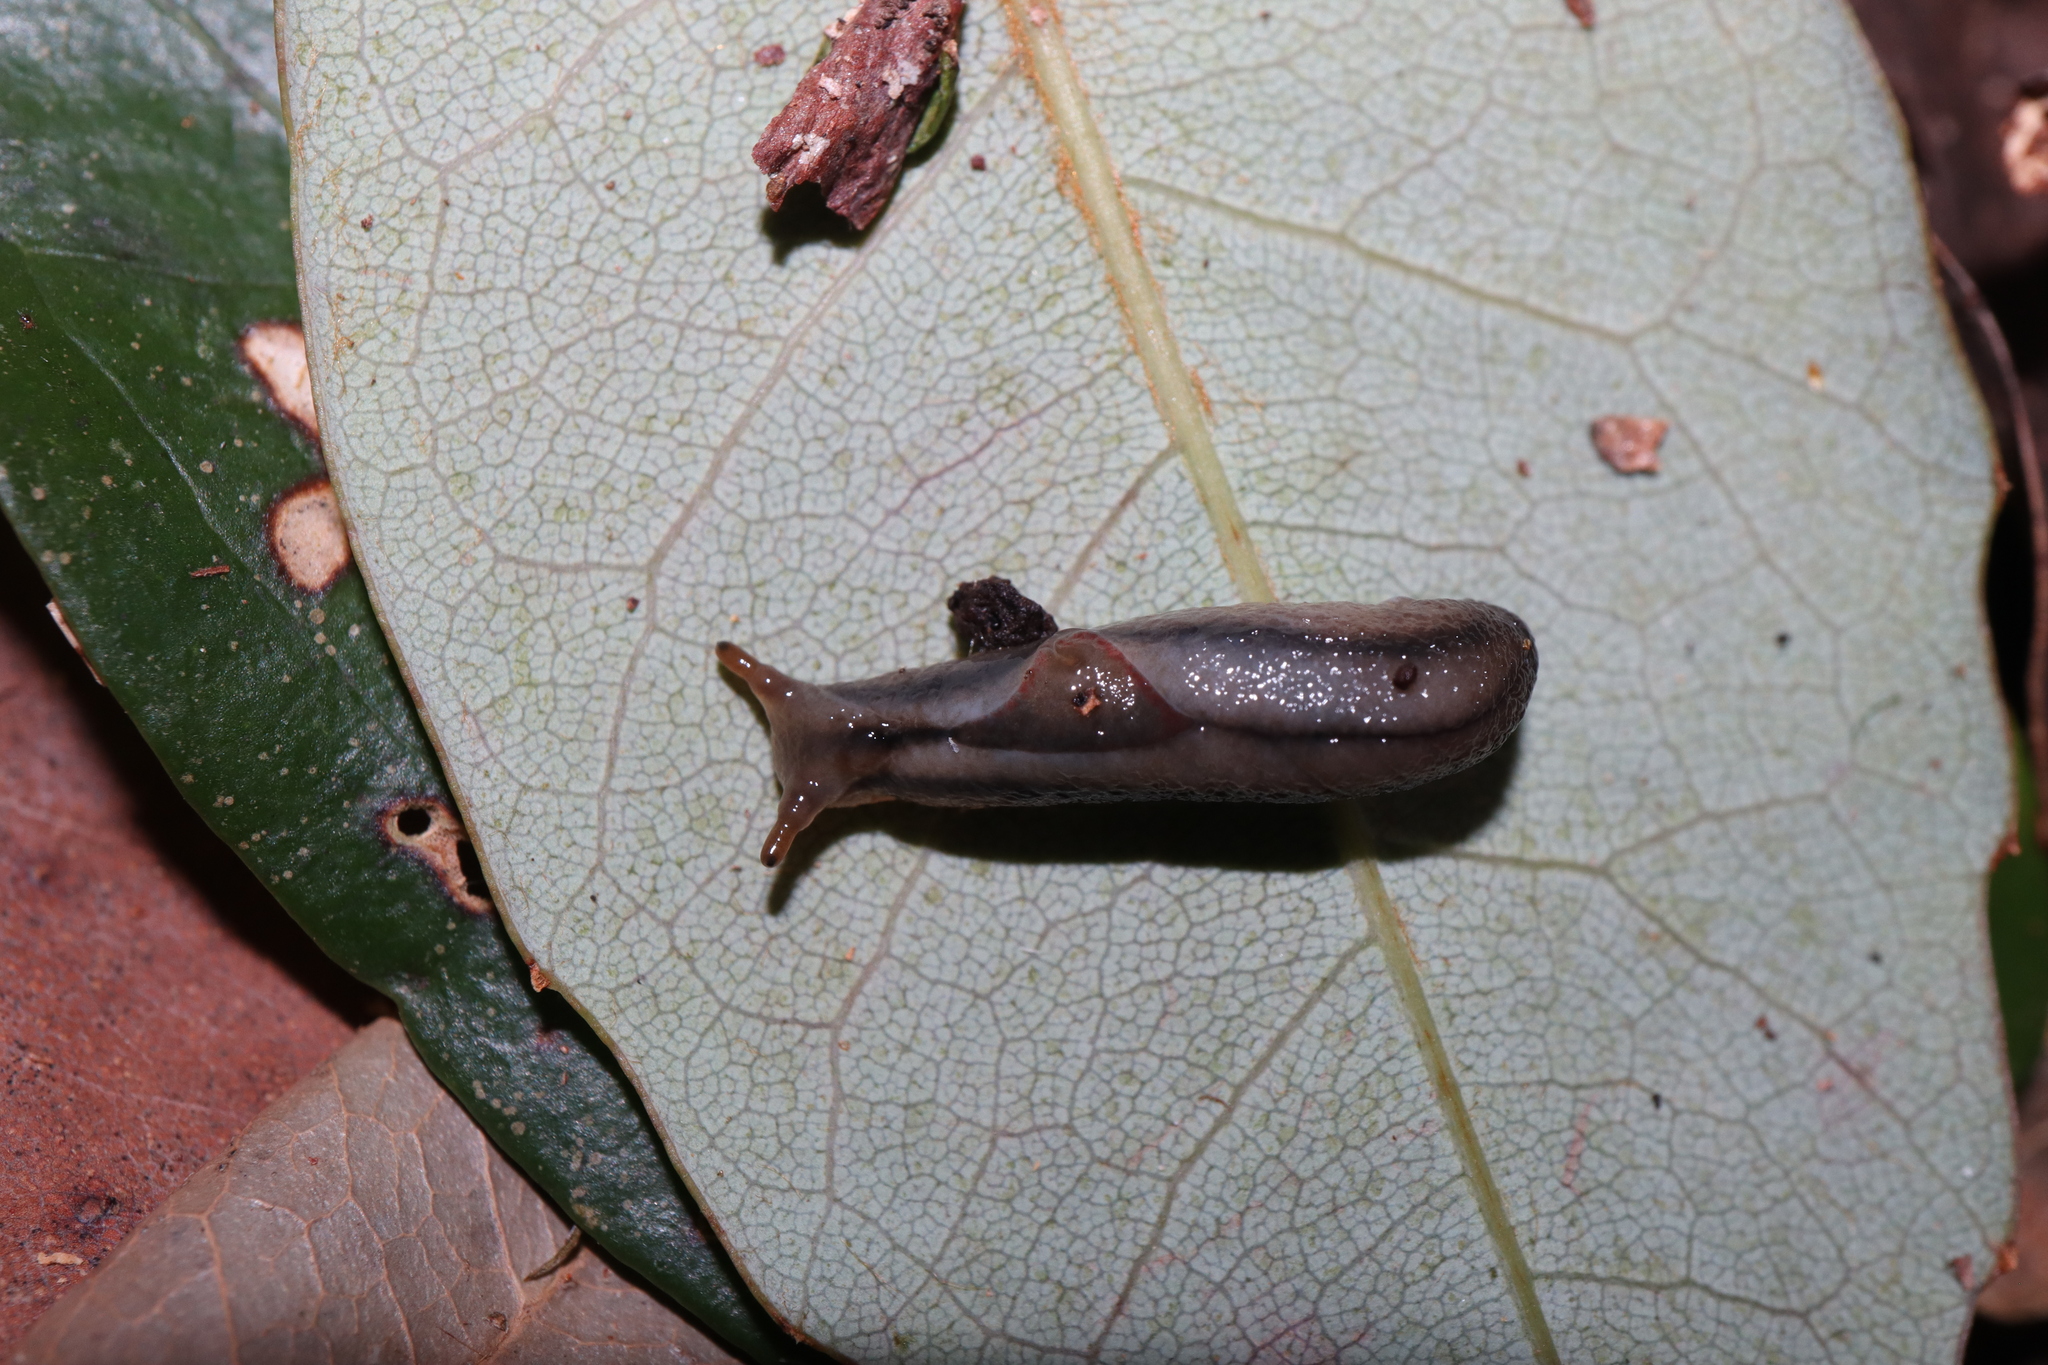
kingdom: Animalia
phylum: Mollusca
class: Gastropoda
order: Stylommatophora
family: Athoracophoridae
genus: Triboniophorus
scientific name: Triboniophorus graeffei
